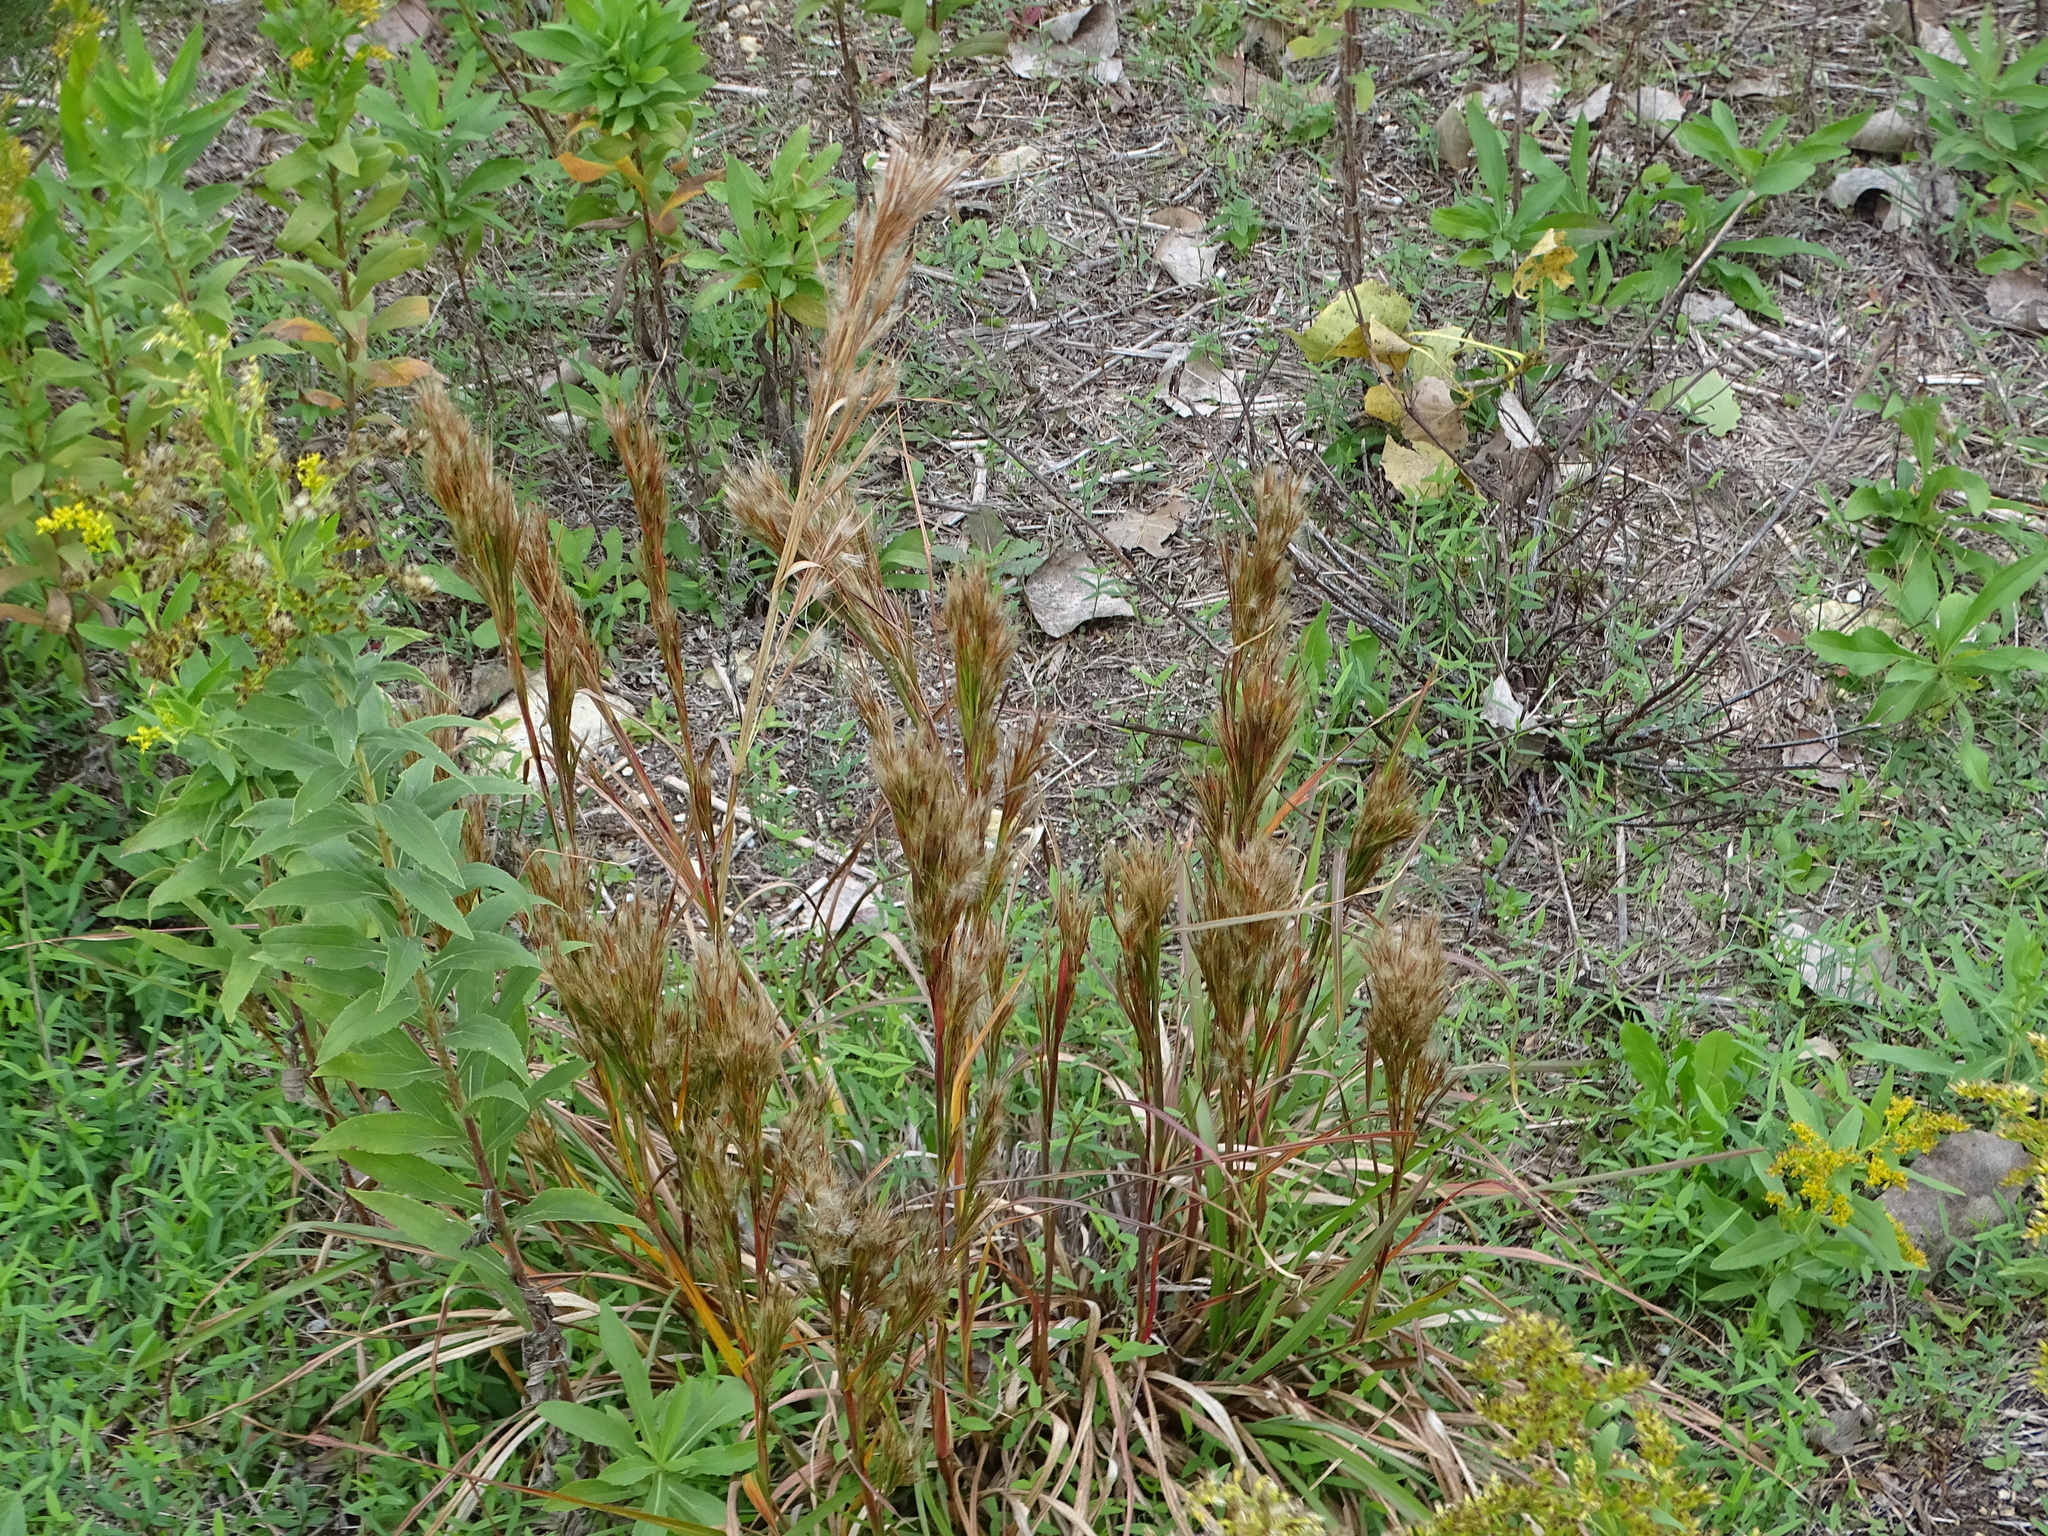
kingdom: Plantae
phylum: Tracheophyta
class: Liliopsida
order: Poales
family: Poaceae
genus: Andropogon
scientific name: Andropogon tenuispatheus
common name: Bushy bluestem
